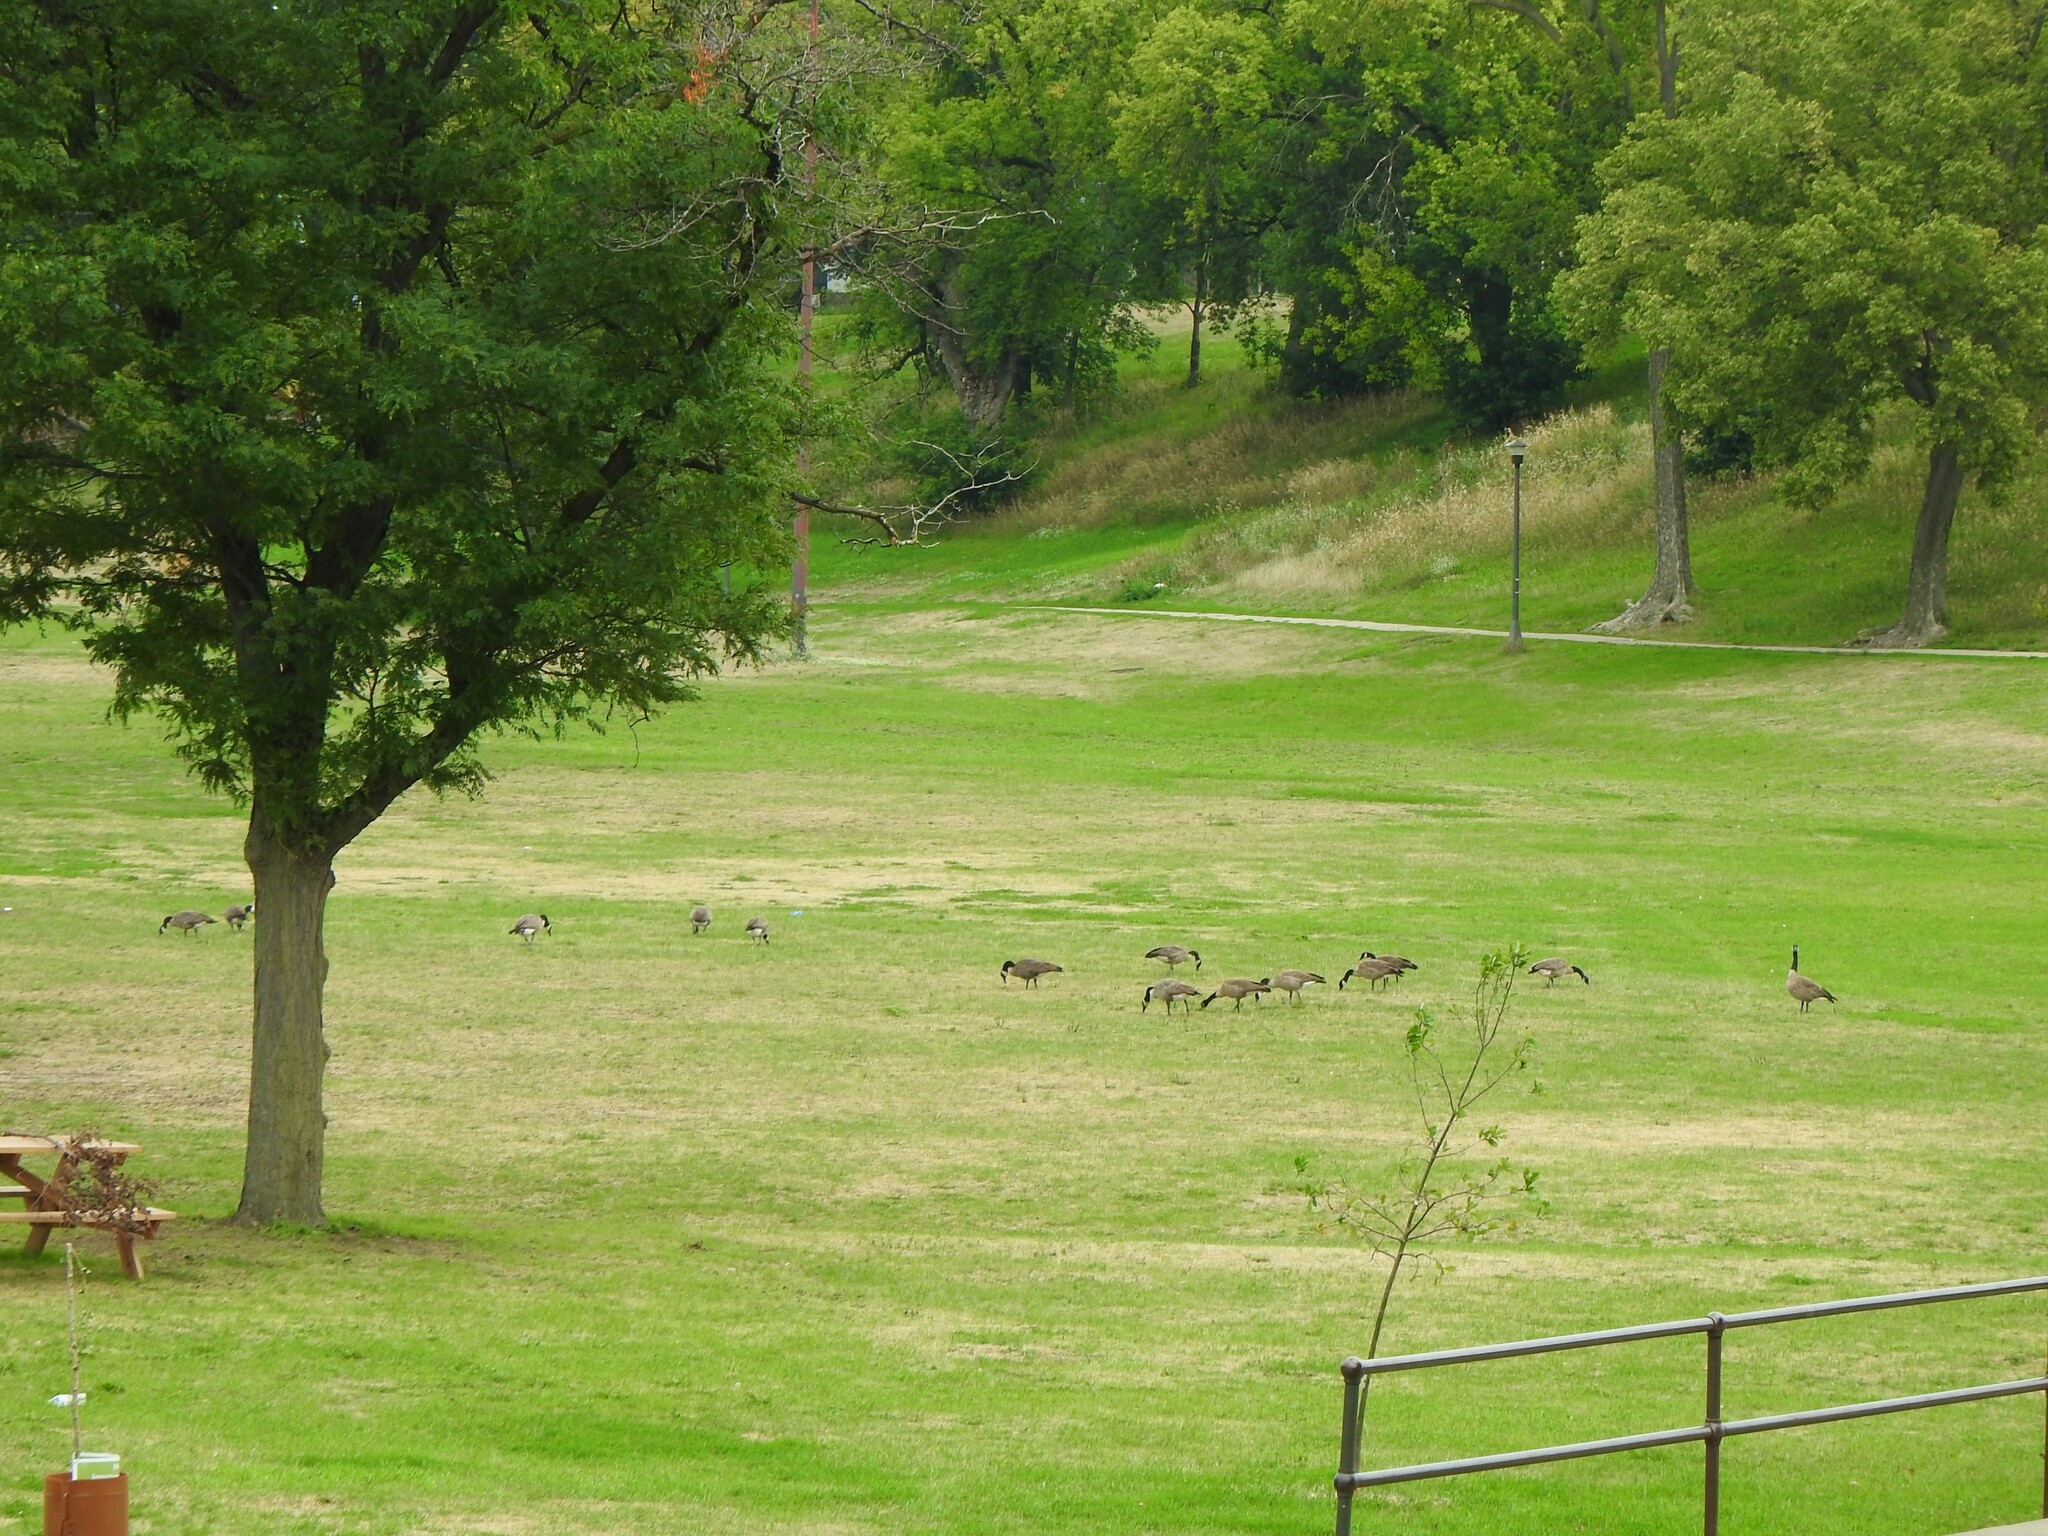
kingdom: Animalia
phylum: Chordata
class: Aves
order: Anseriformes
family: Anatidae
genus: Branta
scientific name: Branta canadensis
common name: Canada goose
